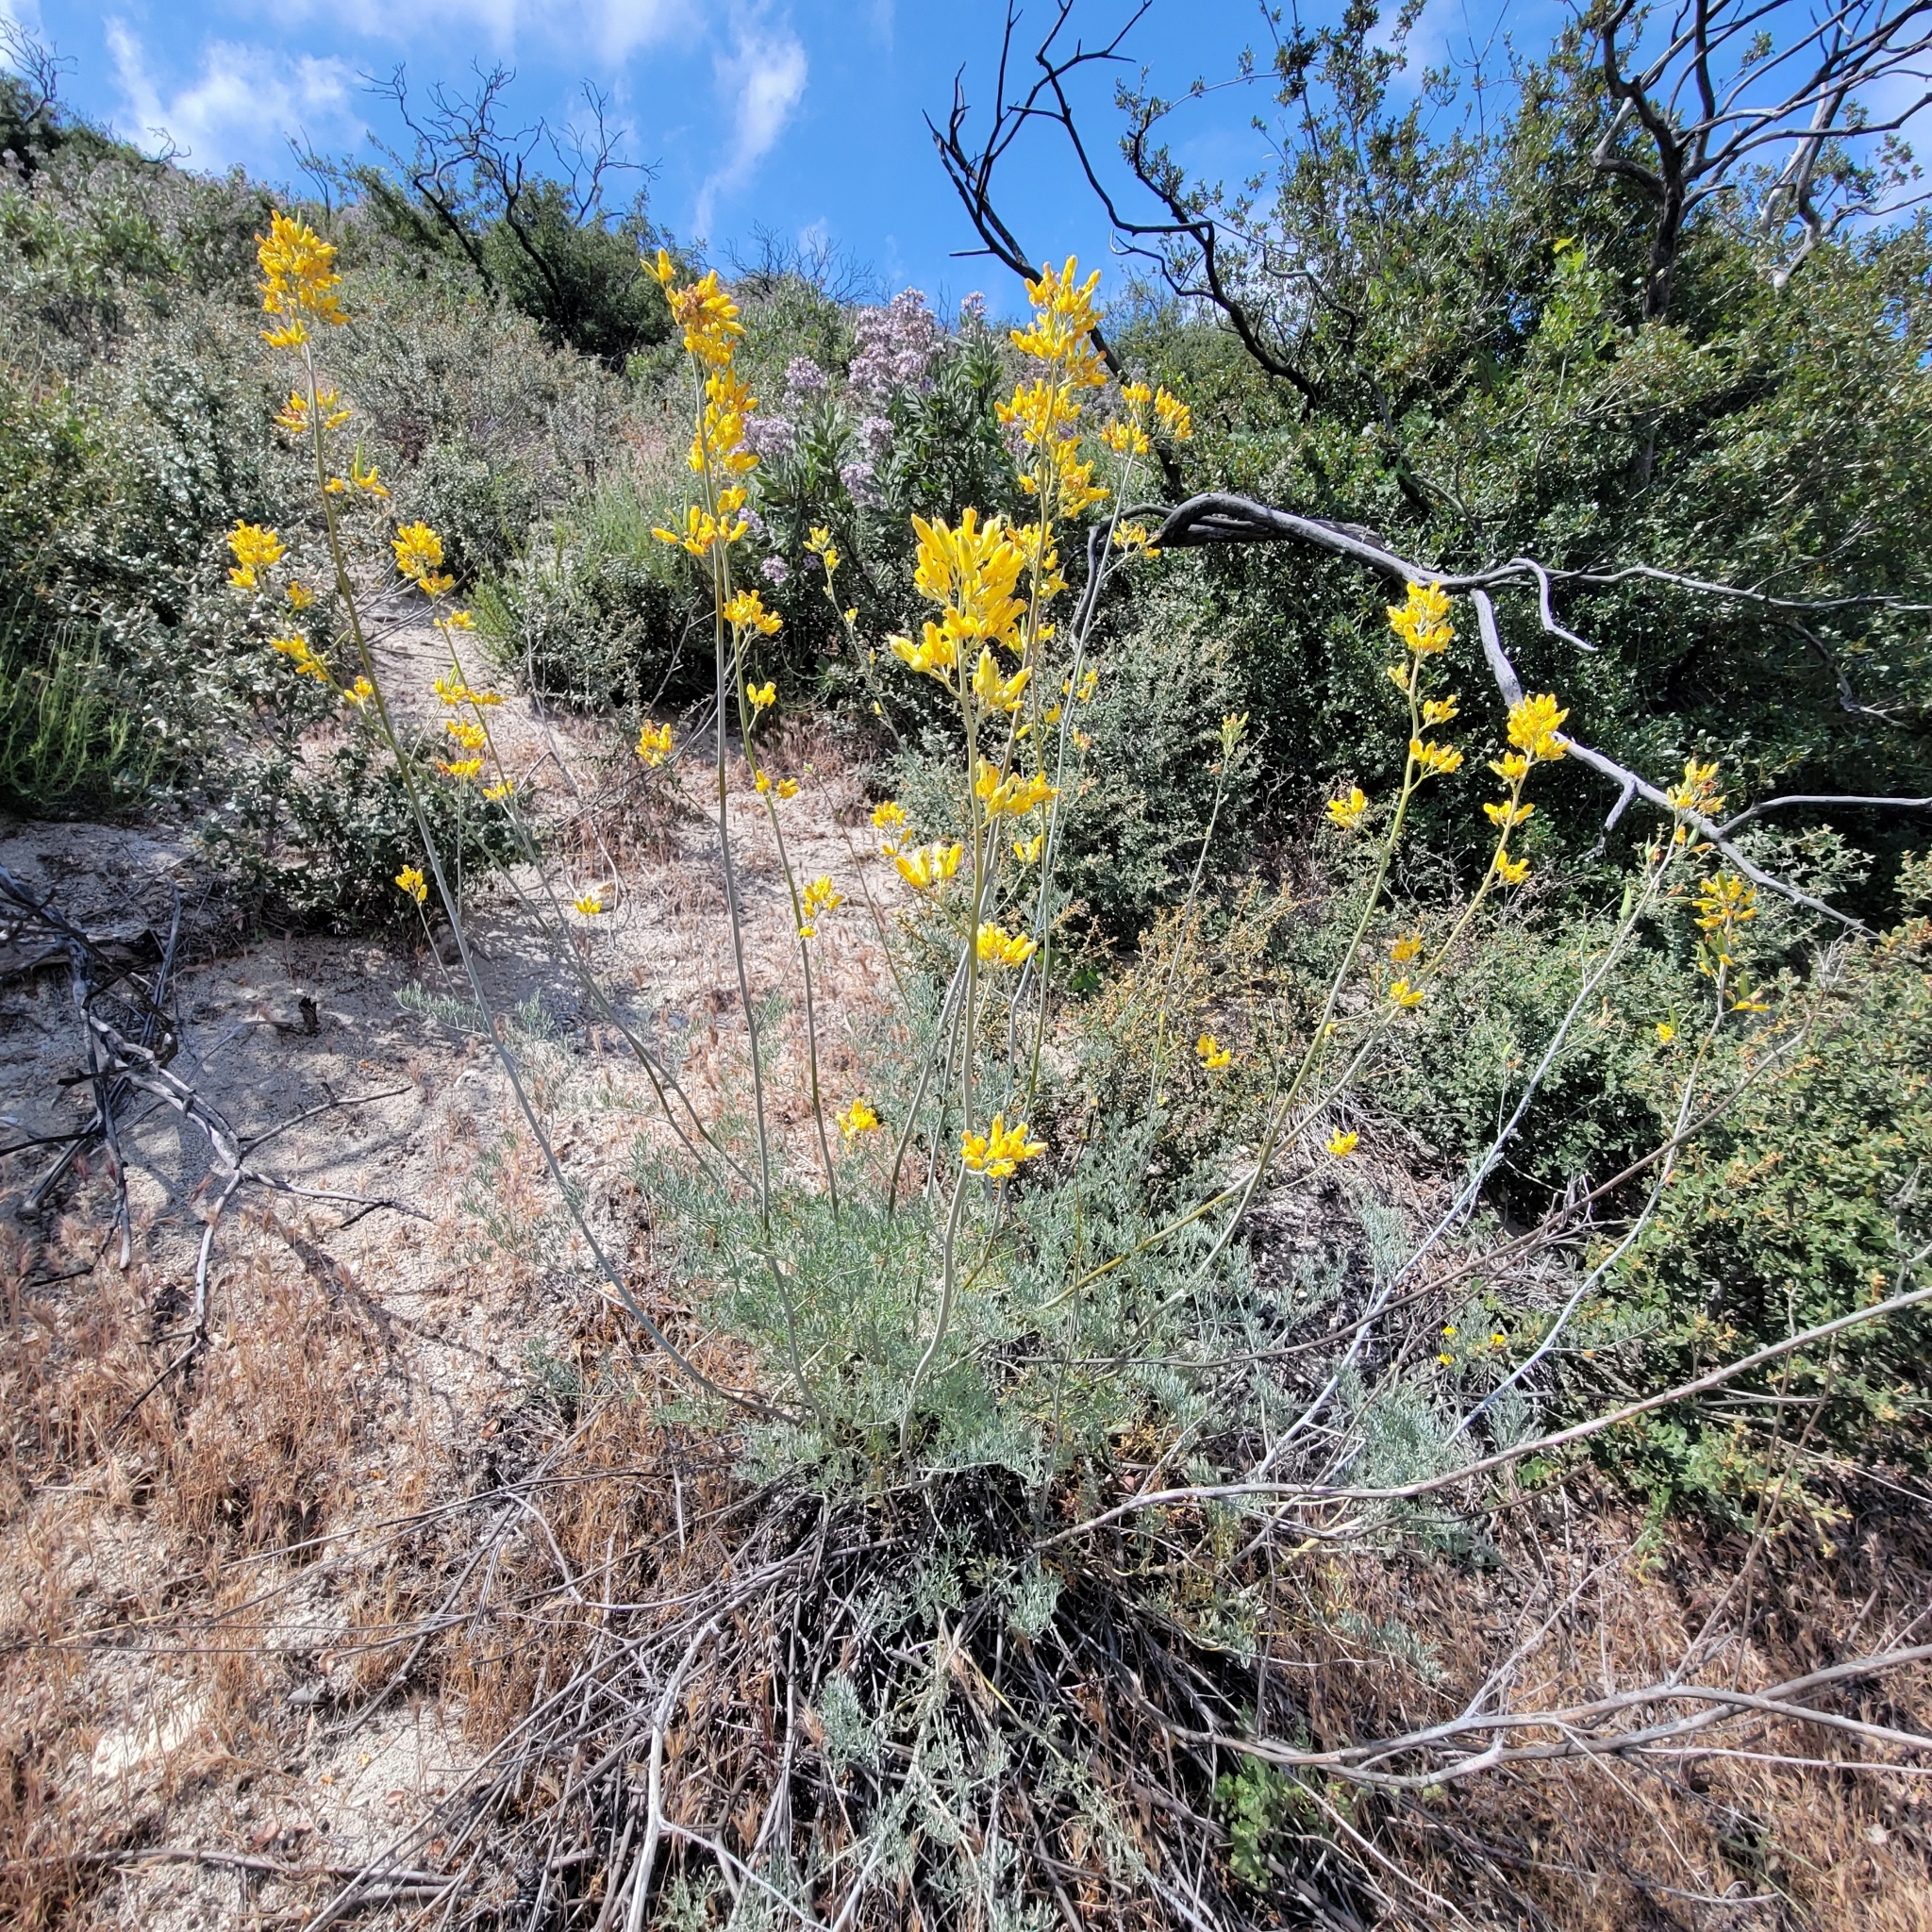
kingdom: Plantae
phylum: Tracheophyta
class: Magnoliopsida
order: Ranunculales
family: Papaveraceae
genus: Ehrendorferia
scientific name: Ehrendorferia chrysantha
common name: Golden eardrops
